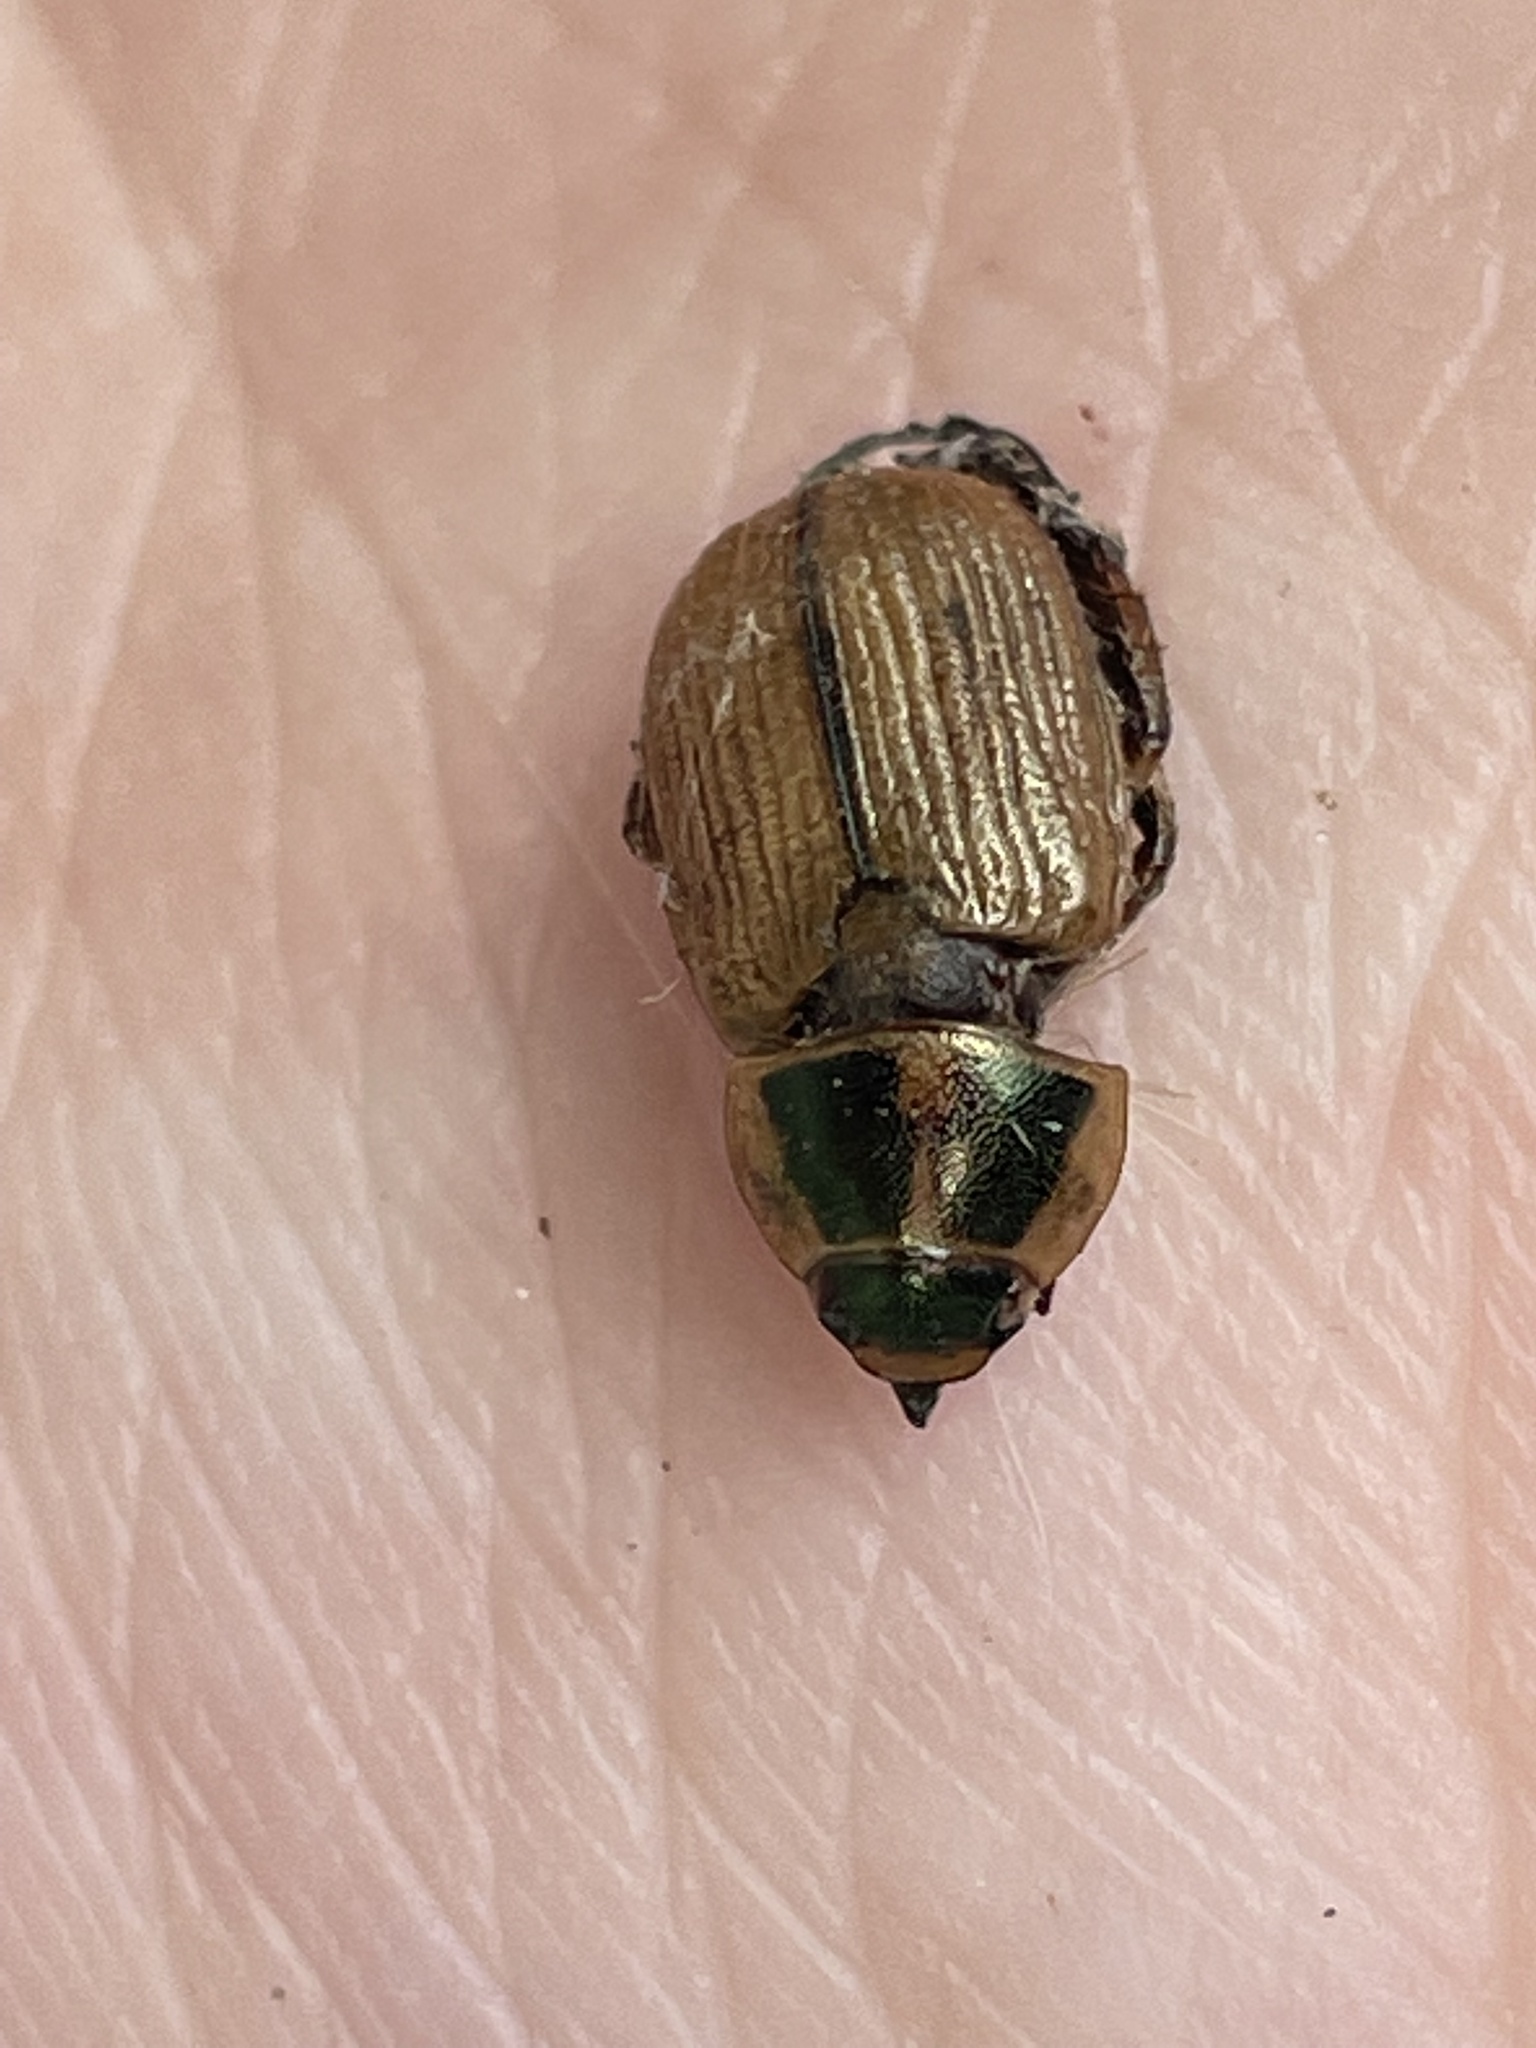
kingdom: Animalia
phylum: Arthropoda
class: Insecta
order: Coleoptera
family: Scarabaeidae
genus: Exomala
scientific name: Exomala orientalis
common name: Oriental beetle
